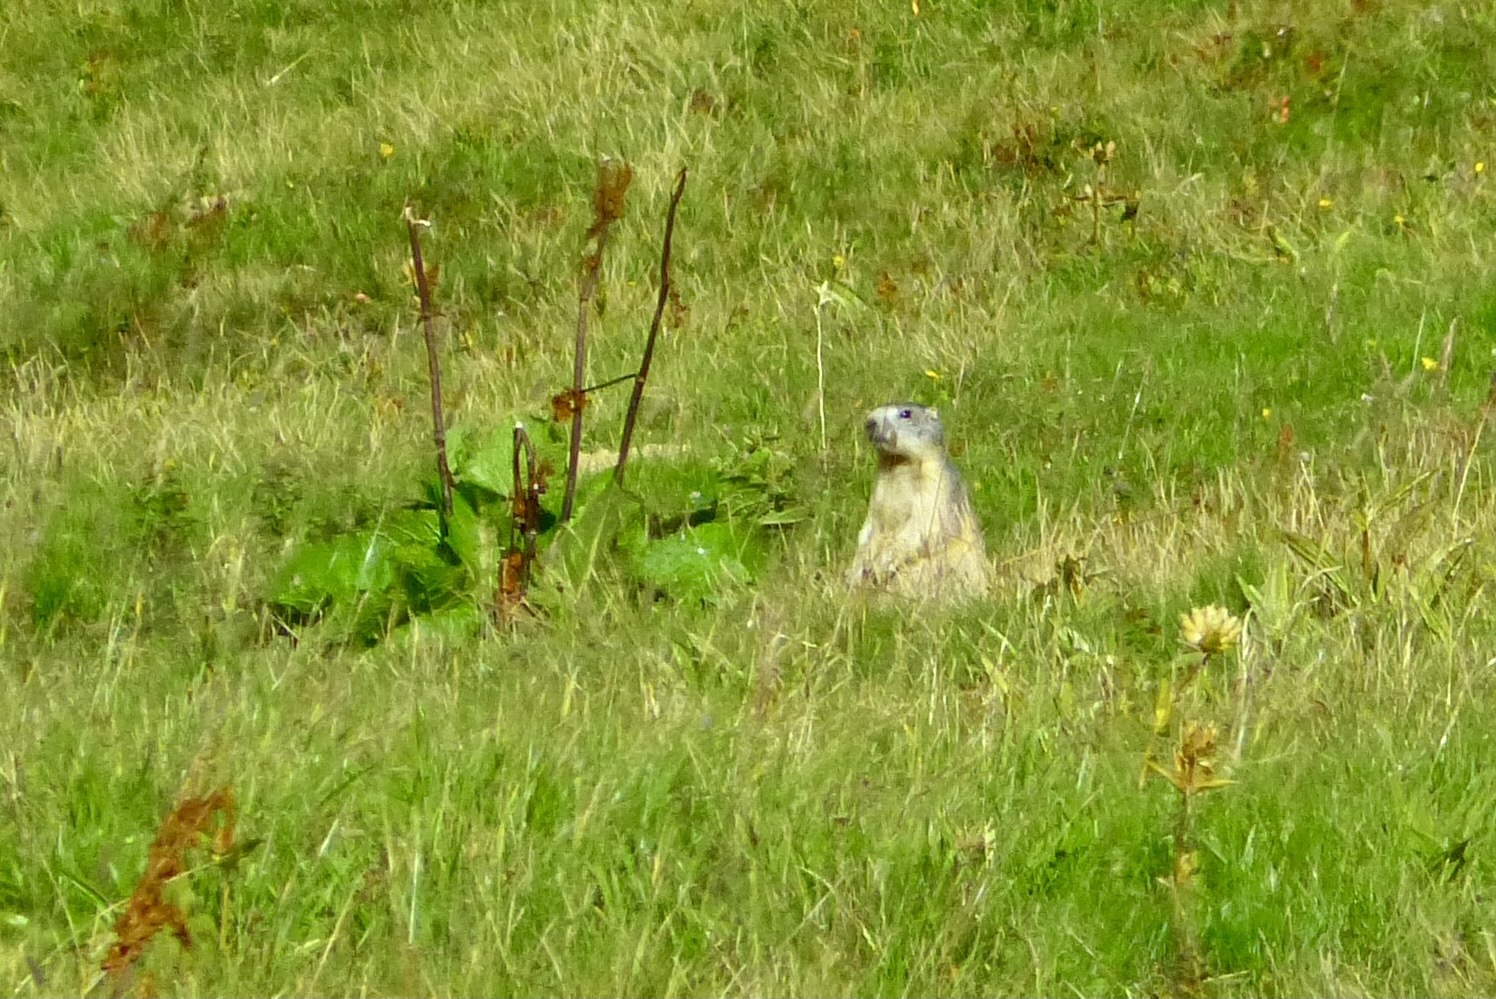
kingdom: Animalia
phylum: Chordata
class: Mammalia
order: Rodentia
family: Sciuridae
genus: Marmota
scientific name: Marmota marmota
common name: Alpine marmot
